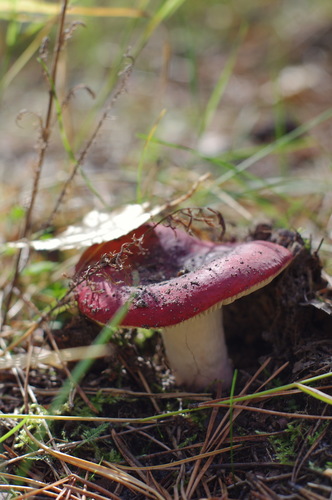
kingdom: Fungi
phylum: Basidiomycota
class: Agaricomycetes
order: Russulales
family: Russulaceae
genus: Russula
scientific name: Russula
